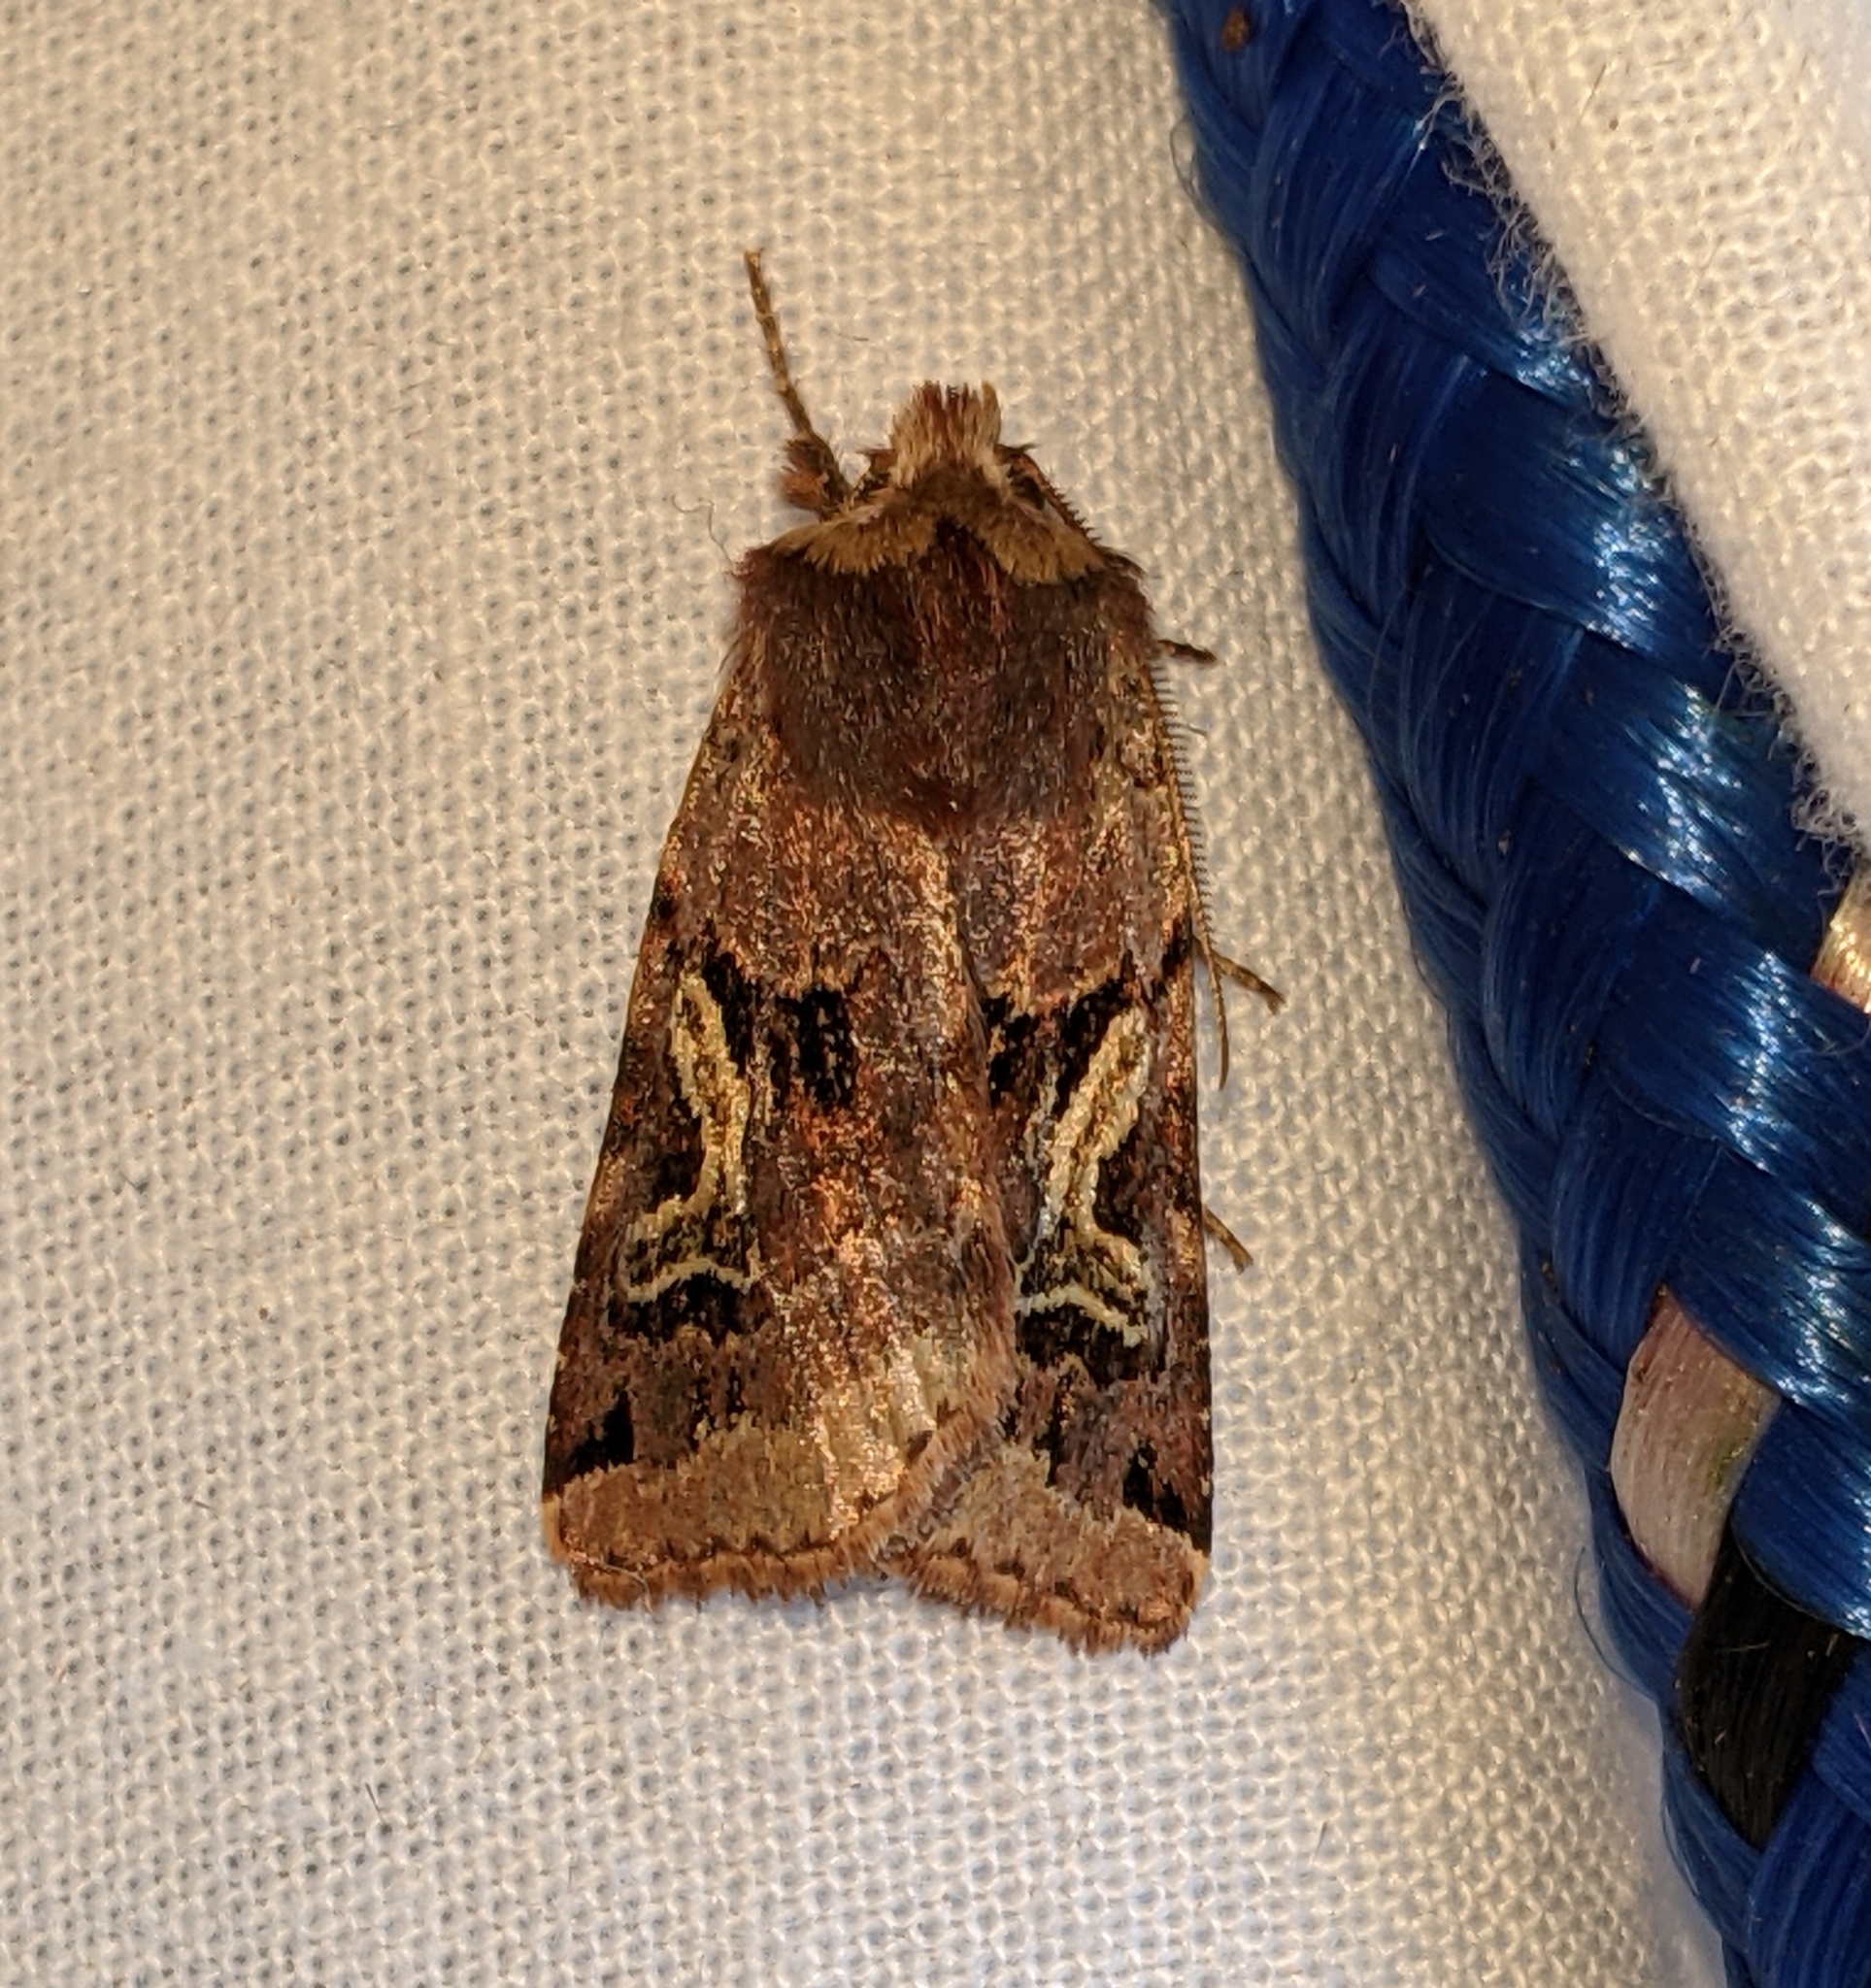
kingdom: Animalia
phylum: Arthropoda
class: Insecta
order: Lepidoptera
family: Noctuidae
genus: Cerastis
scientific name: Cerastis enigmatica
